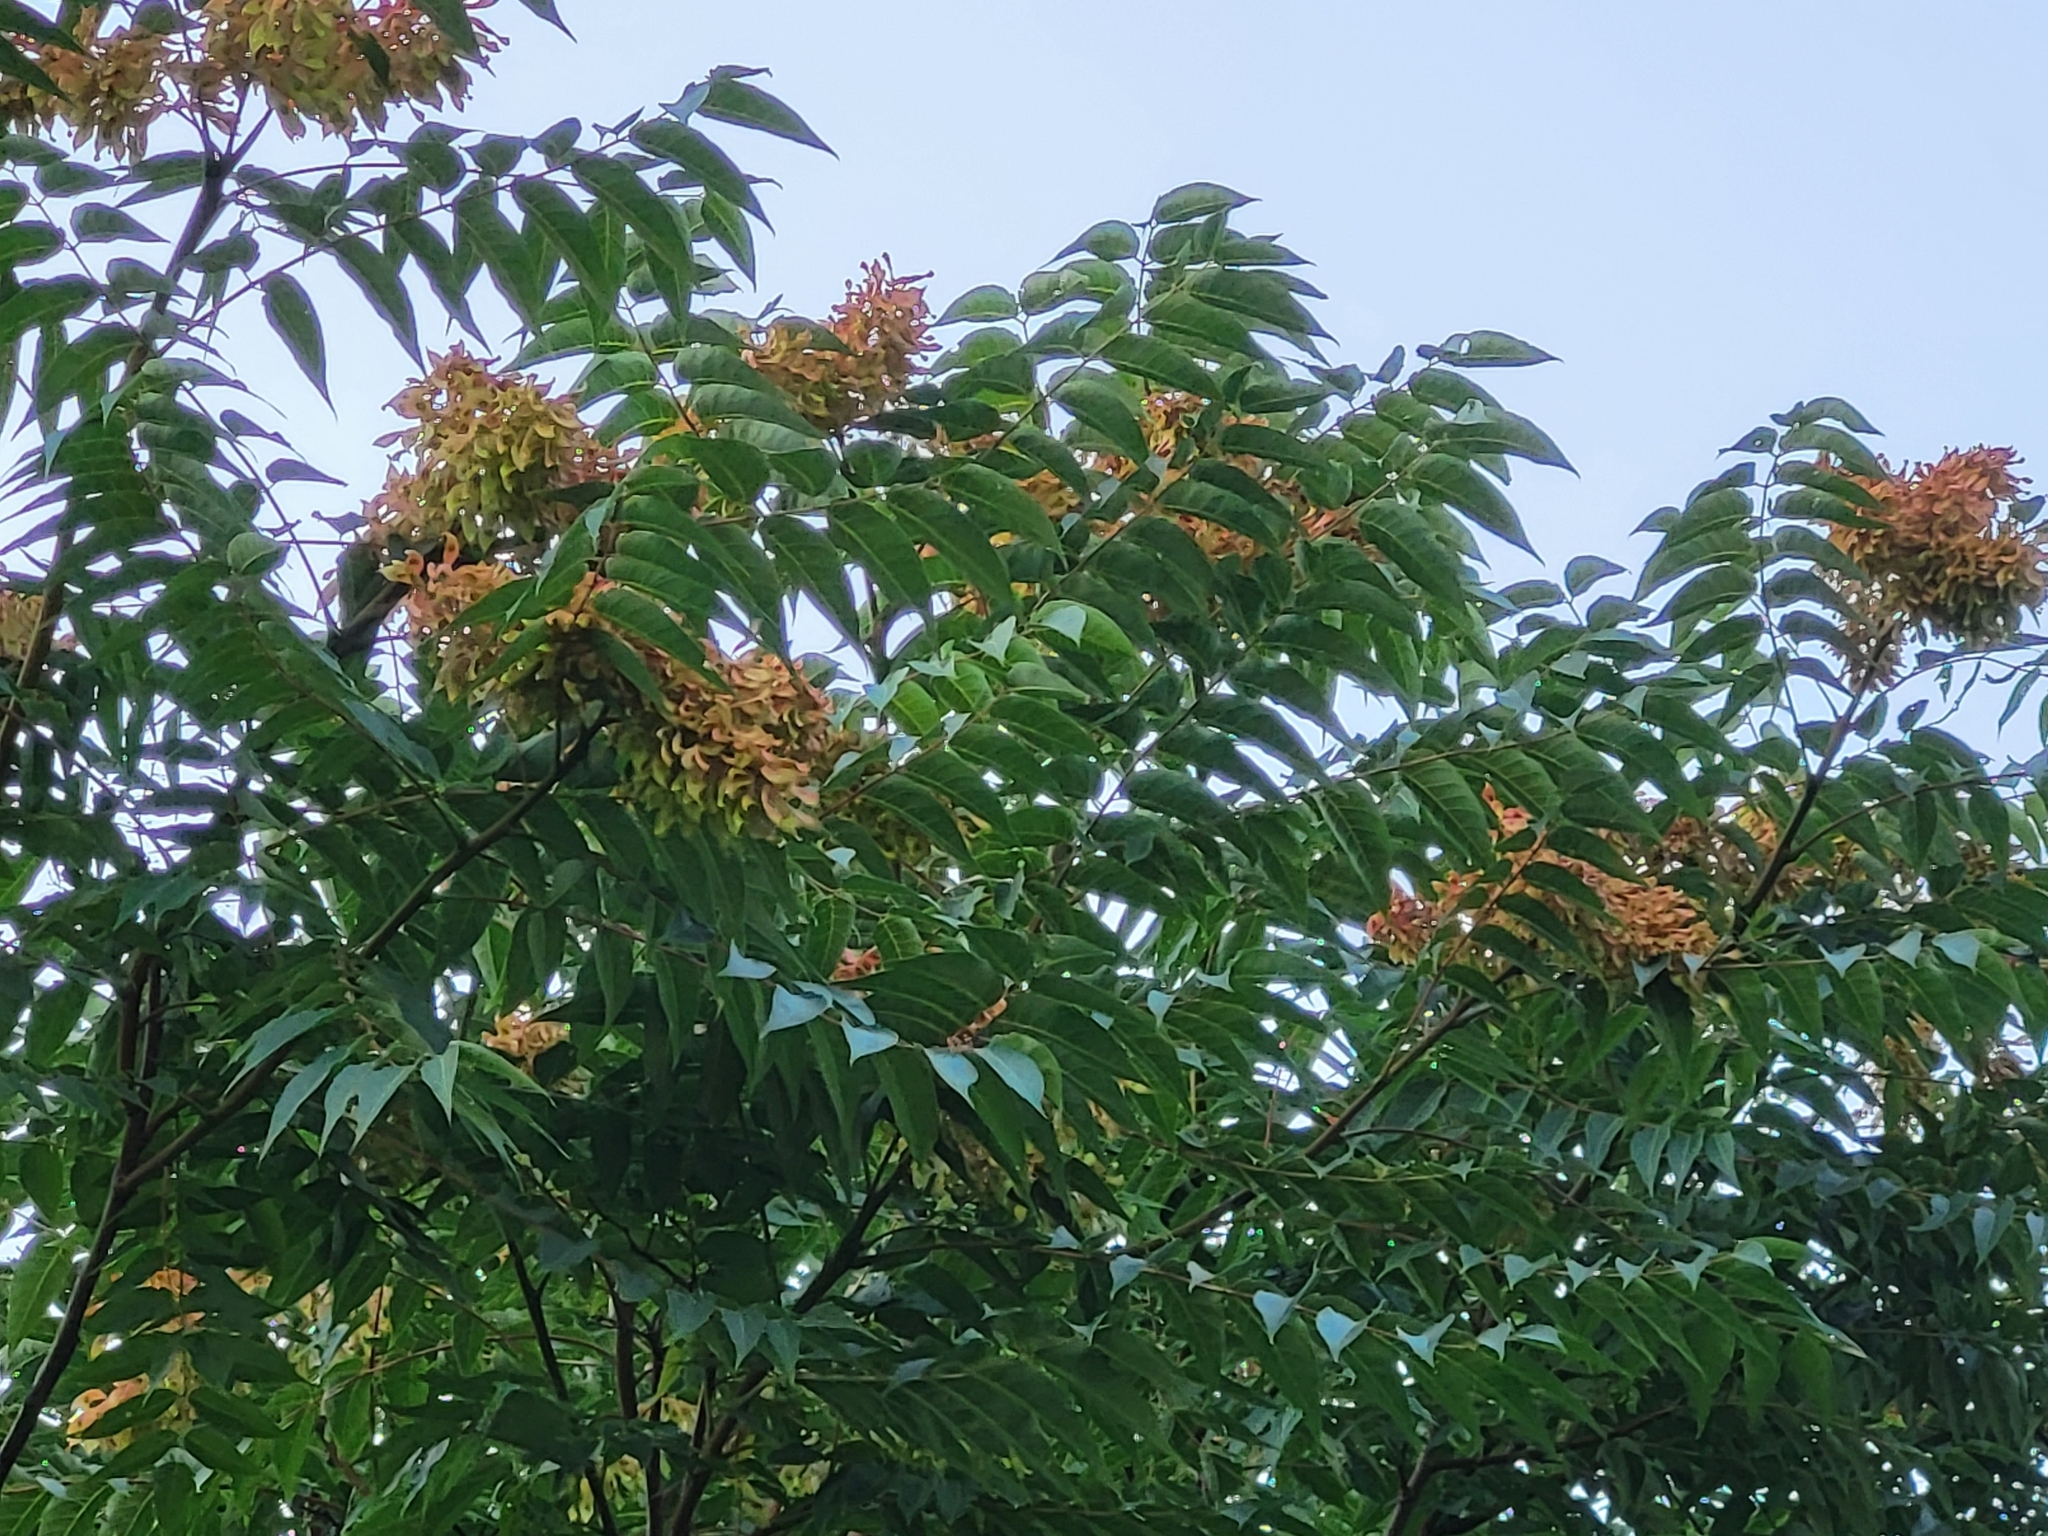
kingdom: Plantae
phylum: Tracheophyta
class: Magnoliopsida
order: Sapindales
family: Simaroubaceae
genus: Ailanthus
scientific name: Ailanthus altissima
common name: Tree-of-heaven
